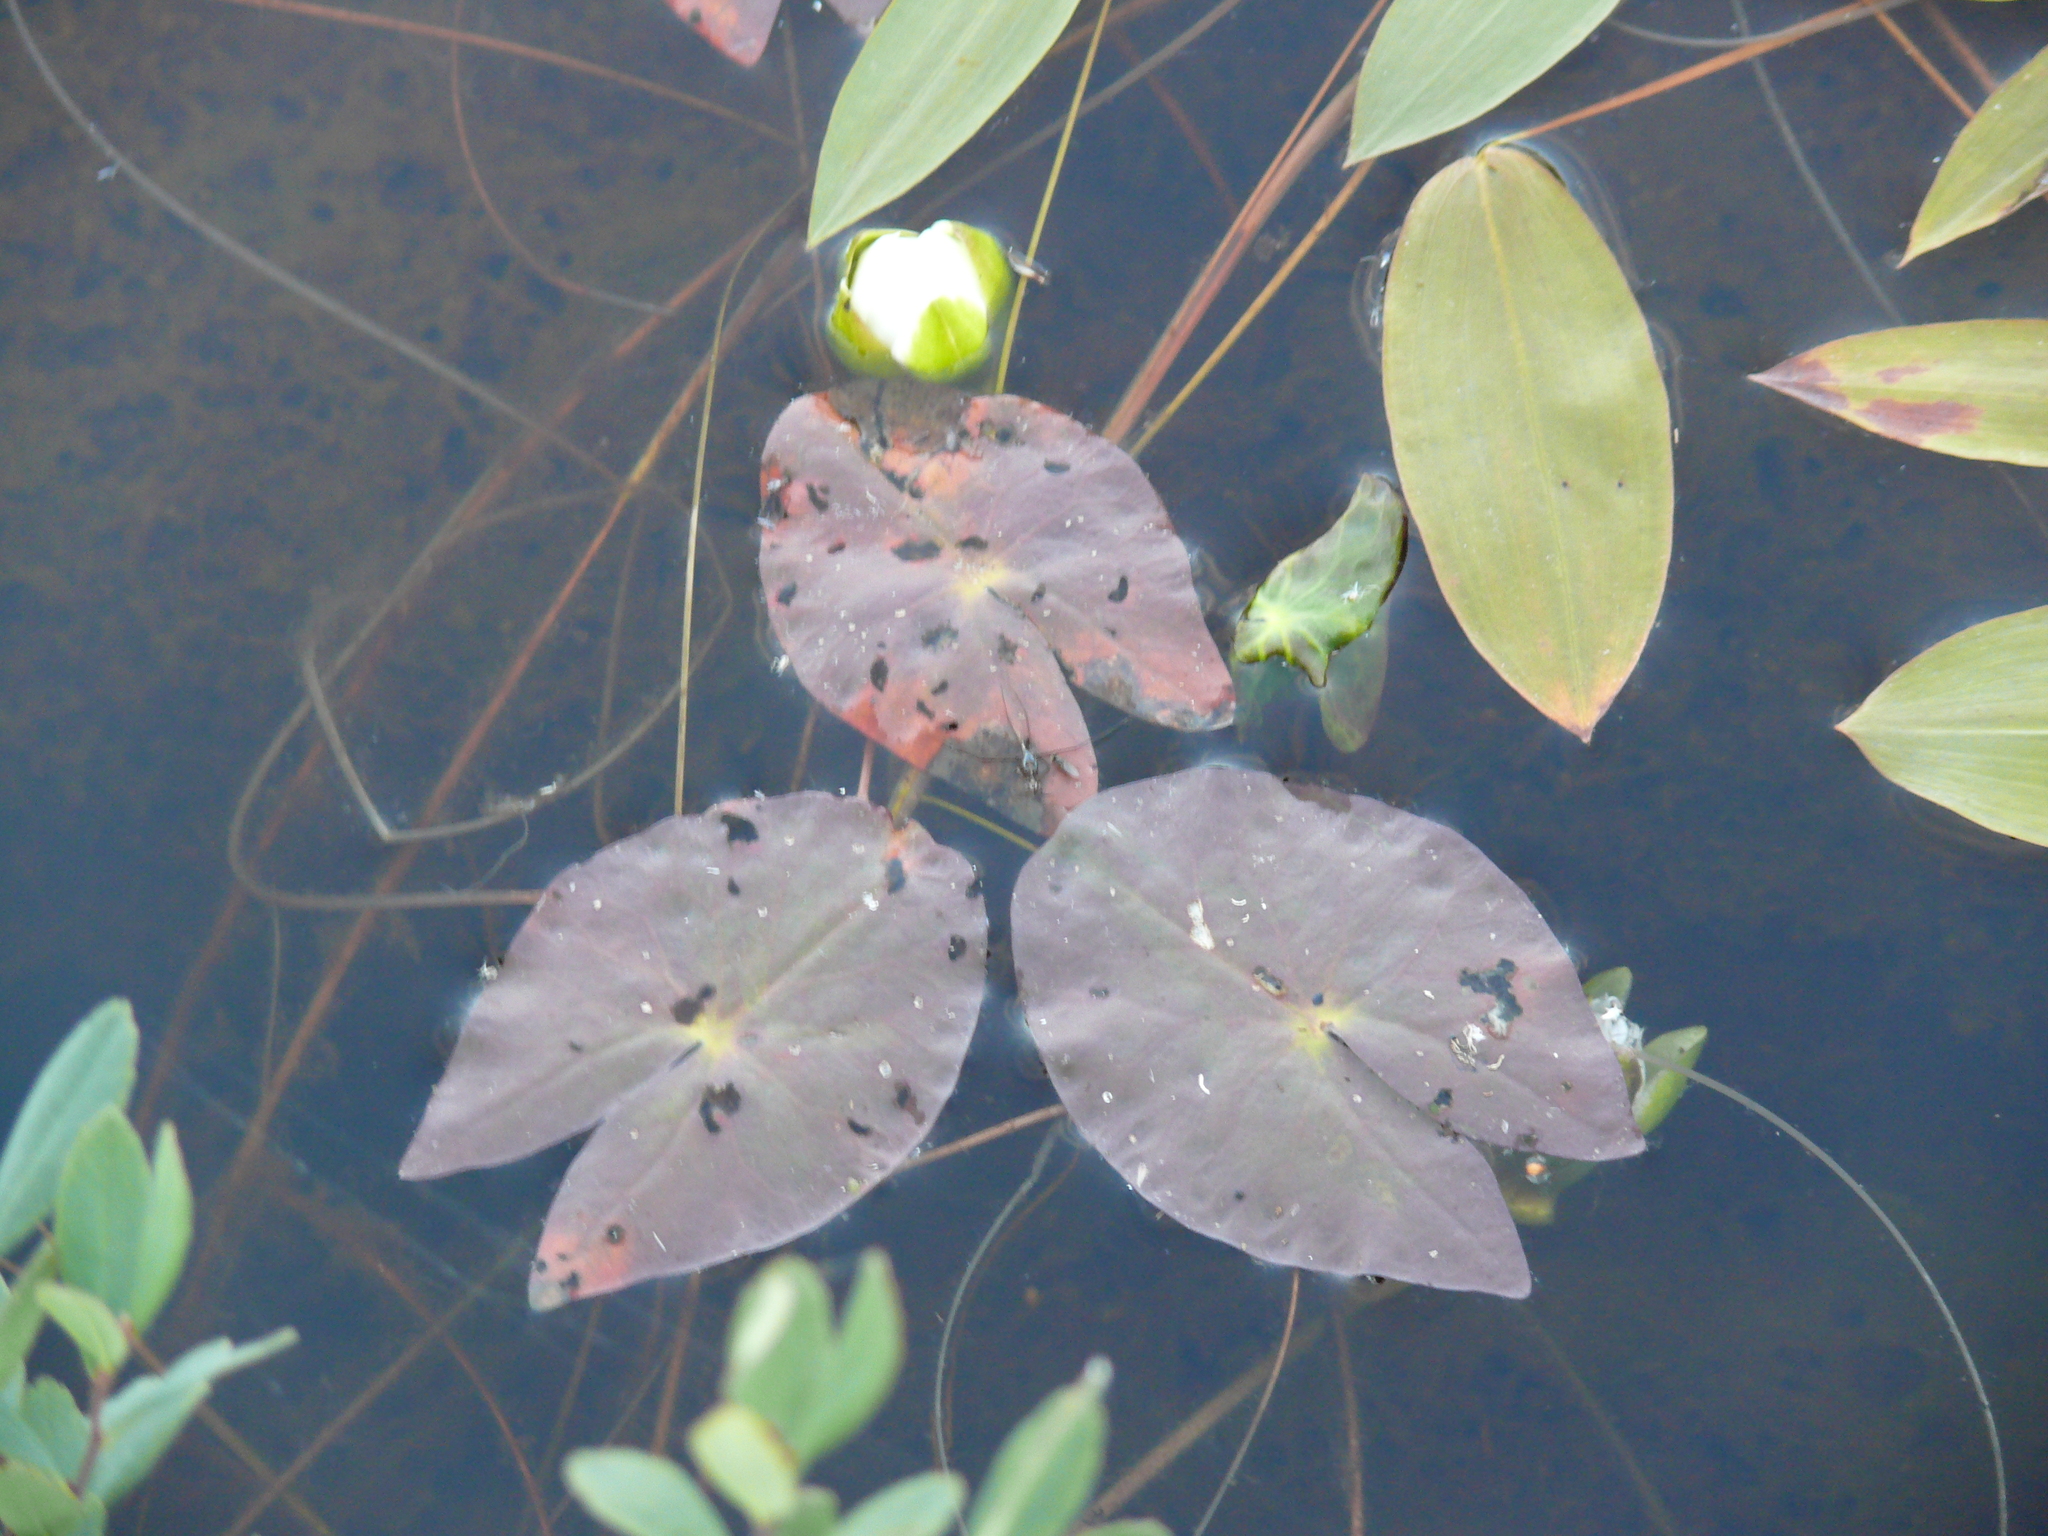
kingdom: Plantae
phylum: Tracheophyta
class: Magnoliopsida
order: Nymphaeales
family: Nymphaeaceae
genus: Nymphaea
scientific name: Nymphaea tetragona
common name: Pygmy water-lily
